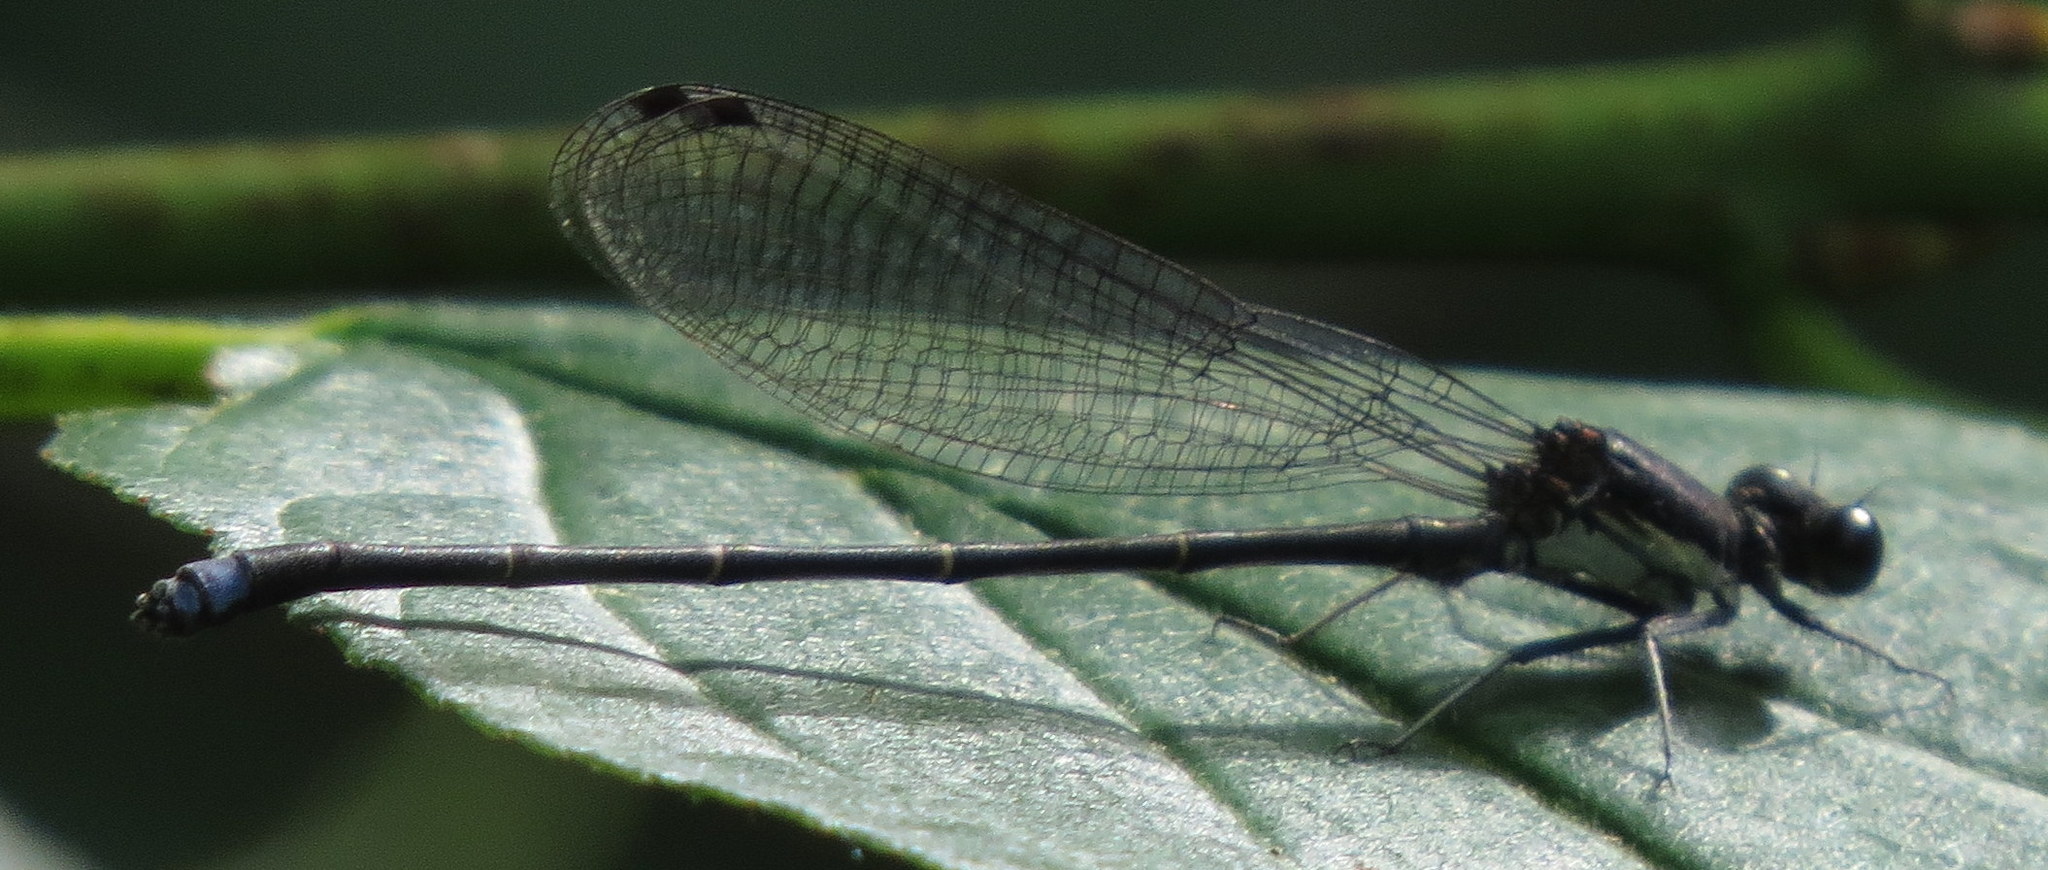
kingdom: Animalia
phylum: Arthropoda
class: Insecta
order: Odonata
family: Coenagrionidae
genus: Argia
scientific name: Argia tibialis
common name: Blue-tipped dancer
